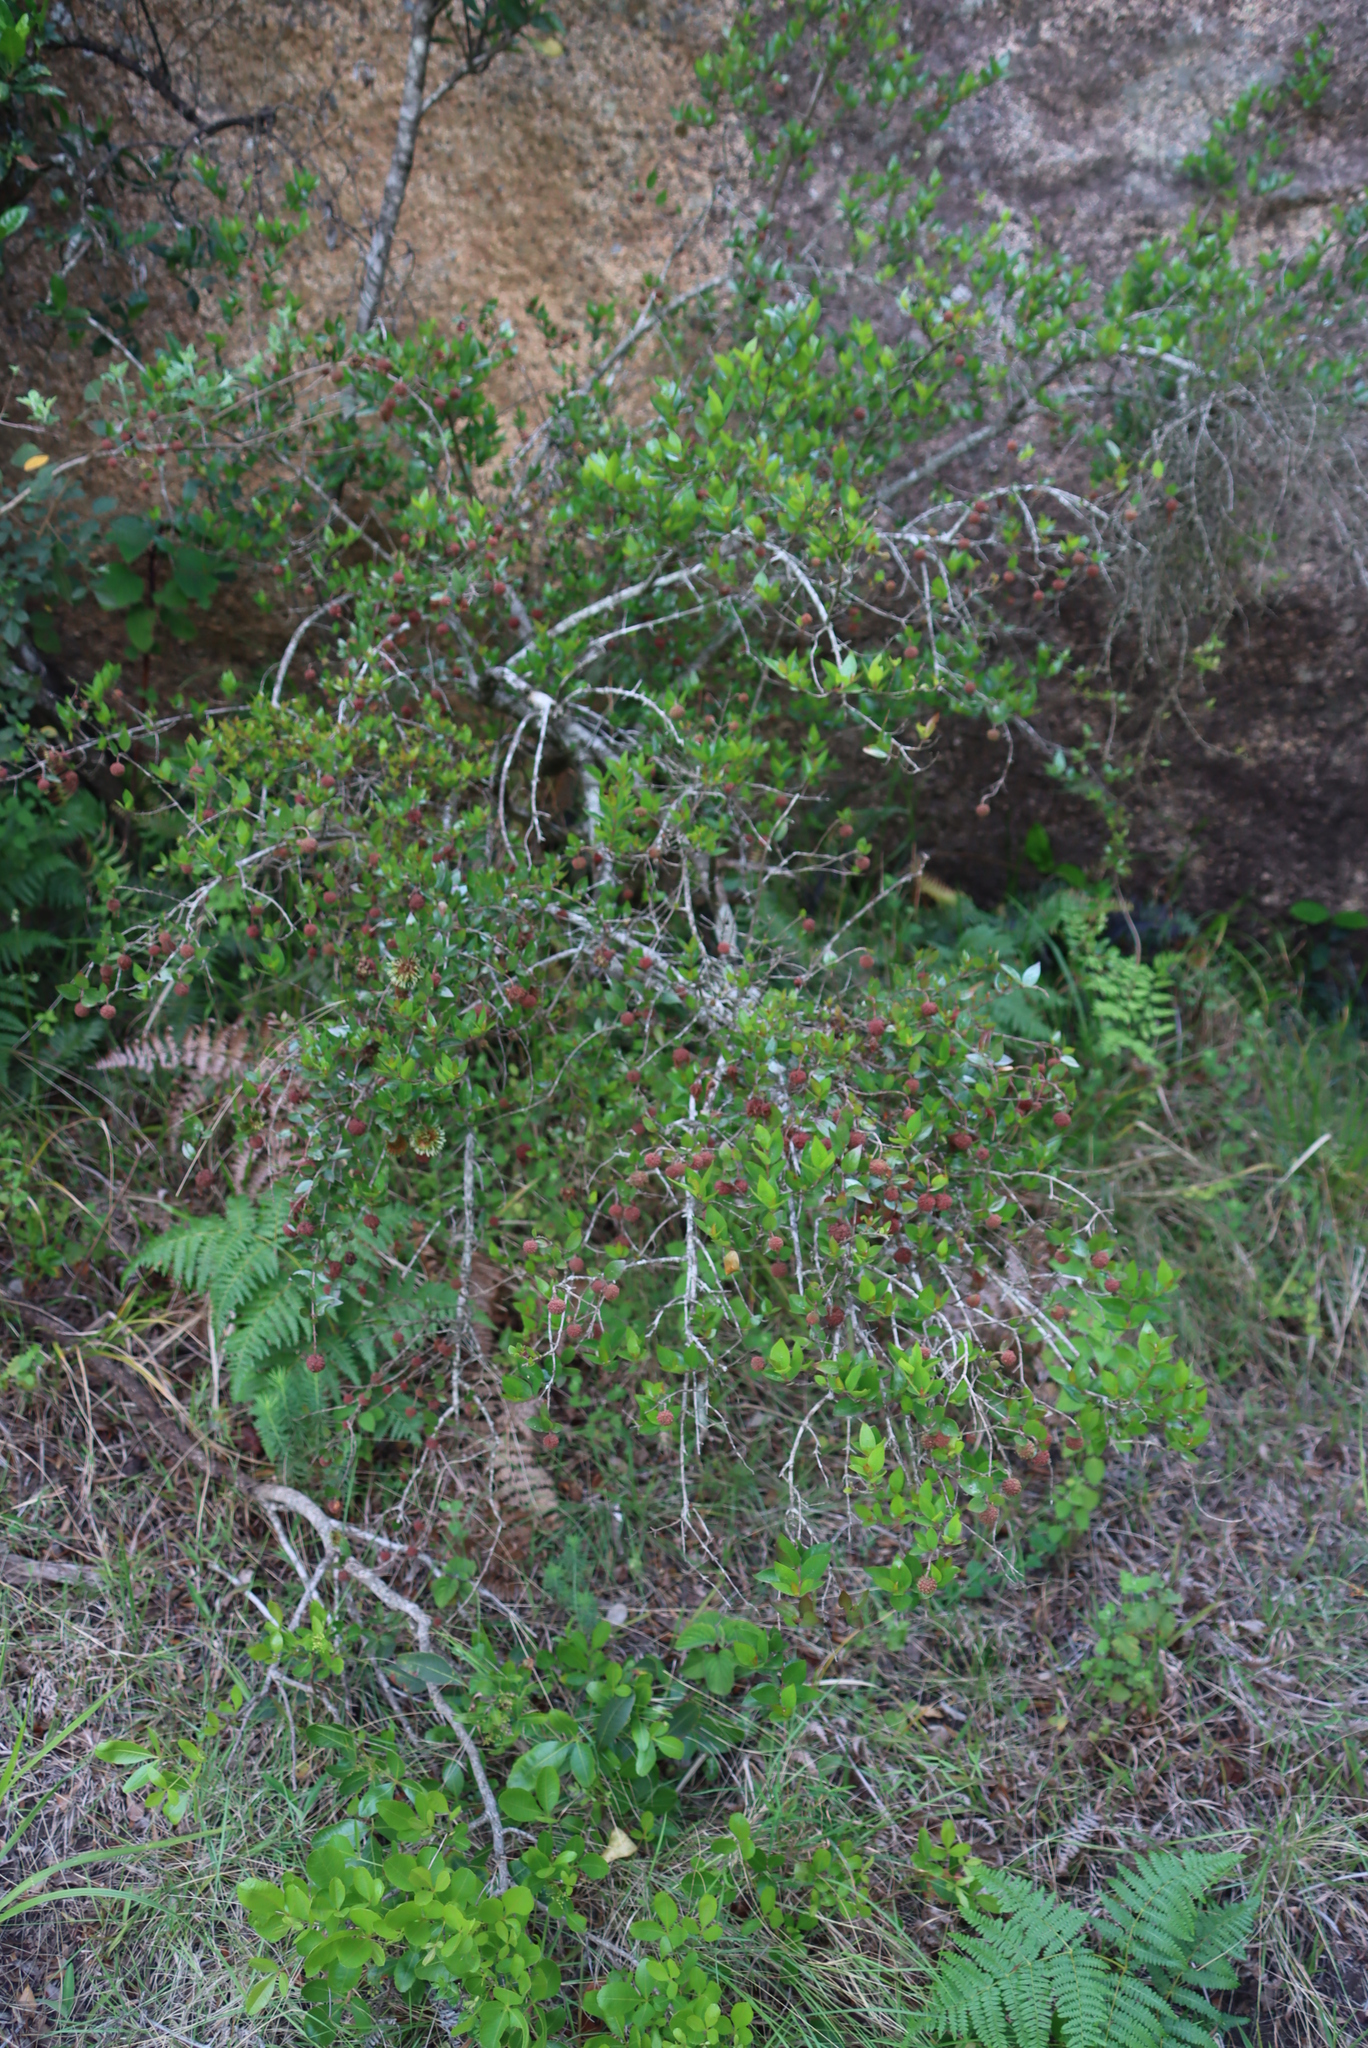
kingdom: Plantae
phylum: Tracheophyta
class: Magnoliopsida
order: Gentianales
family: Rubiaceae
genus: Cephalanthus
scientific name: Cephalanthus natalensis
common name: Strawberry bush
